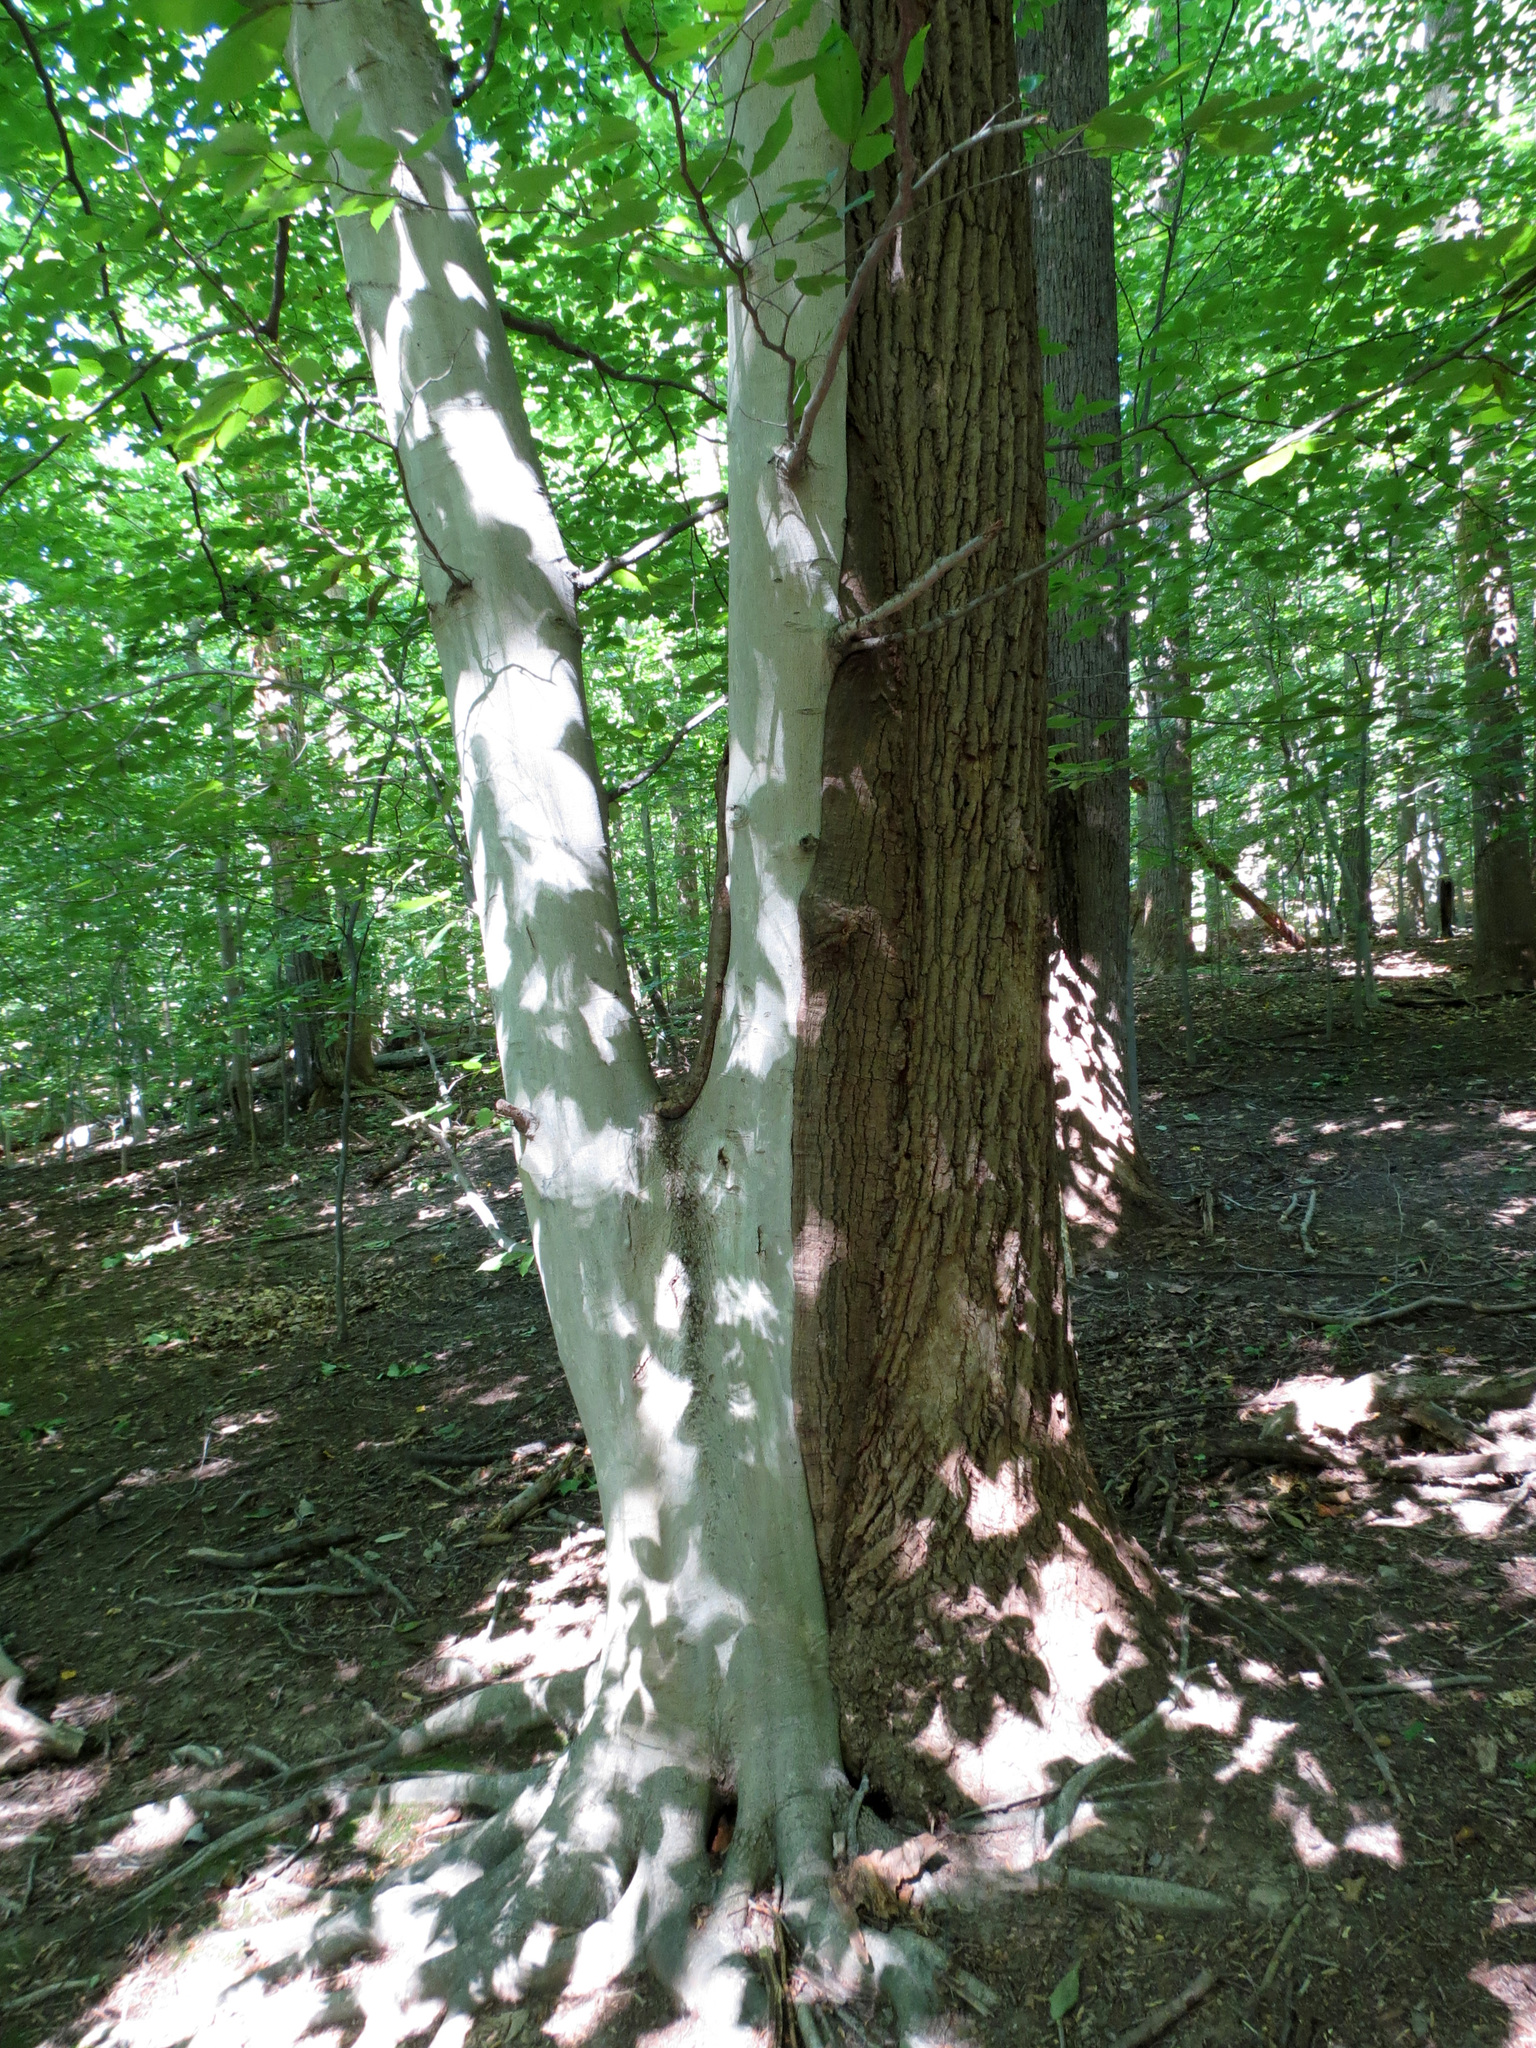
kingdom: Plantae
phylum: Tracheophyta
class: Magnoliopsida
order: Fagales
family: Fagaceae
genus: Fagus
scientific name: Fagus grandifolia
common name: American beech
